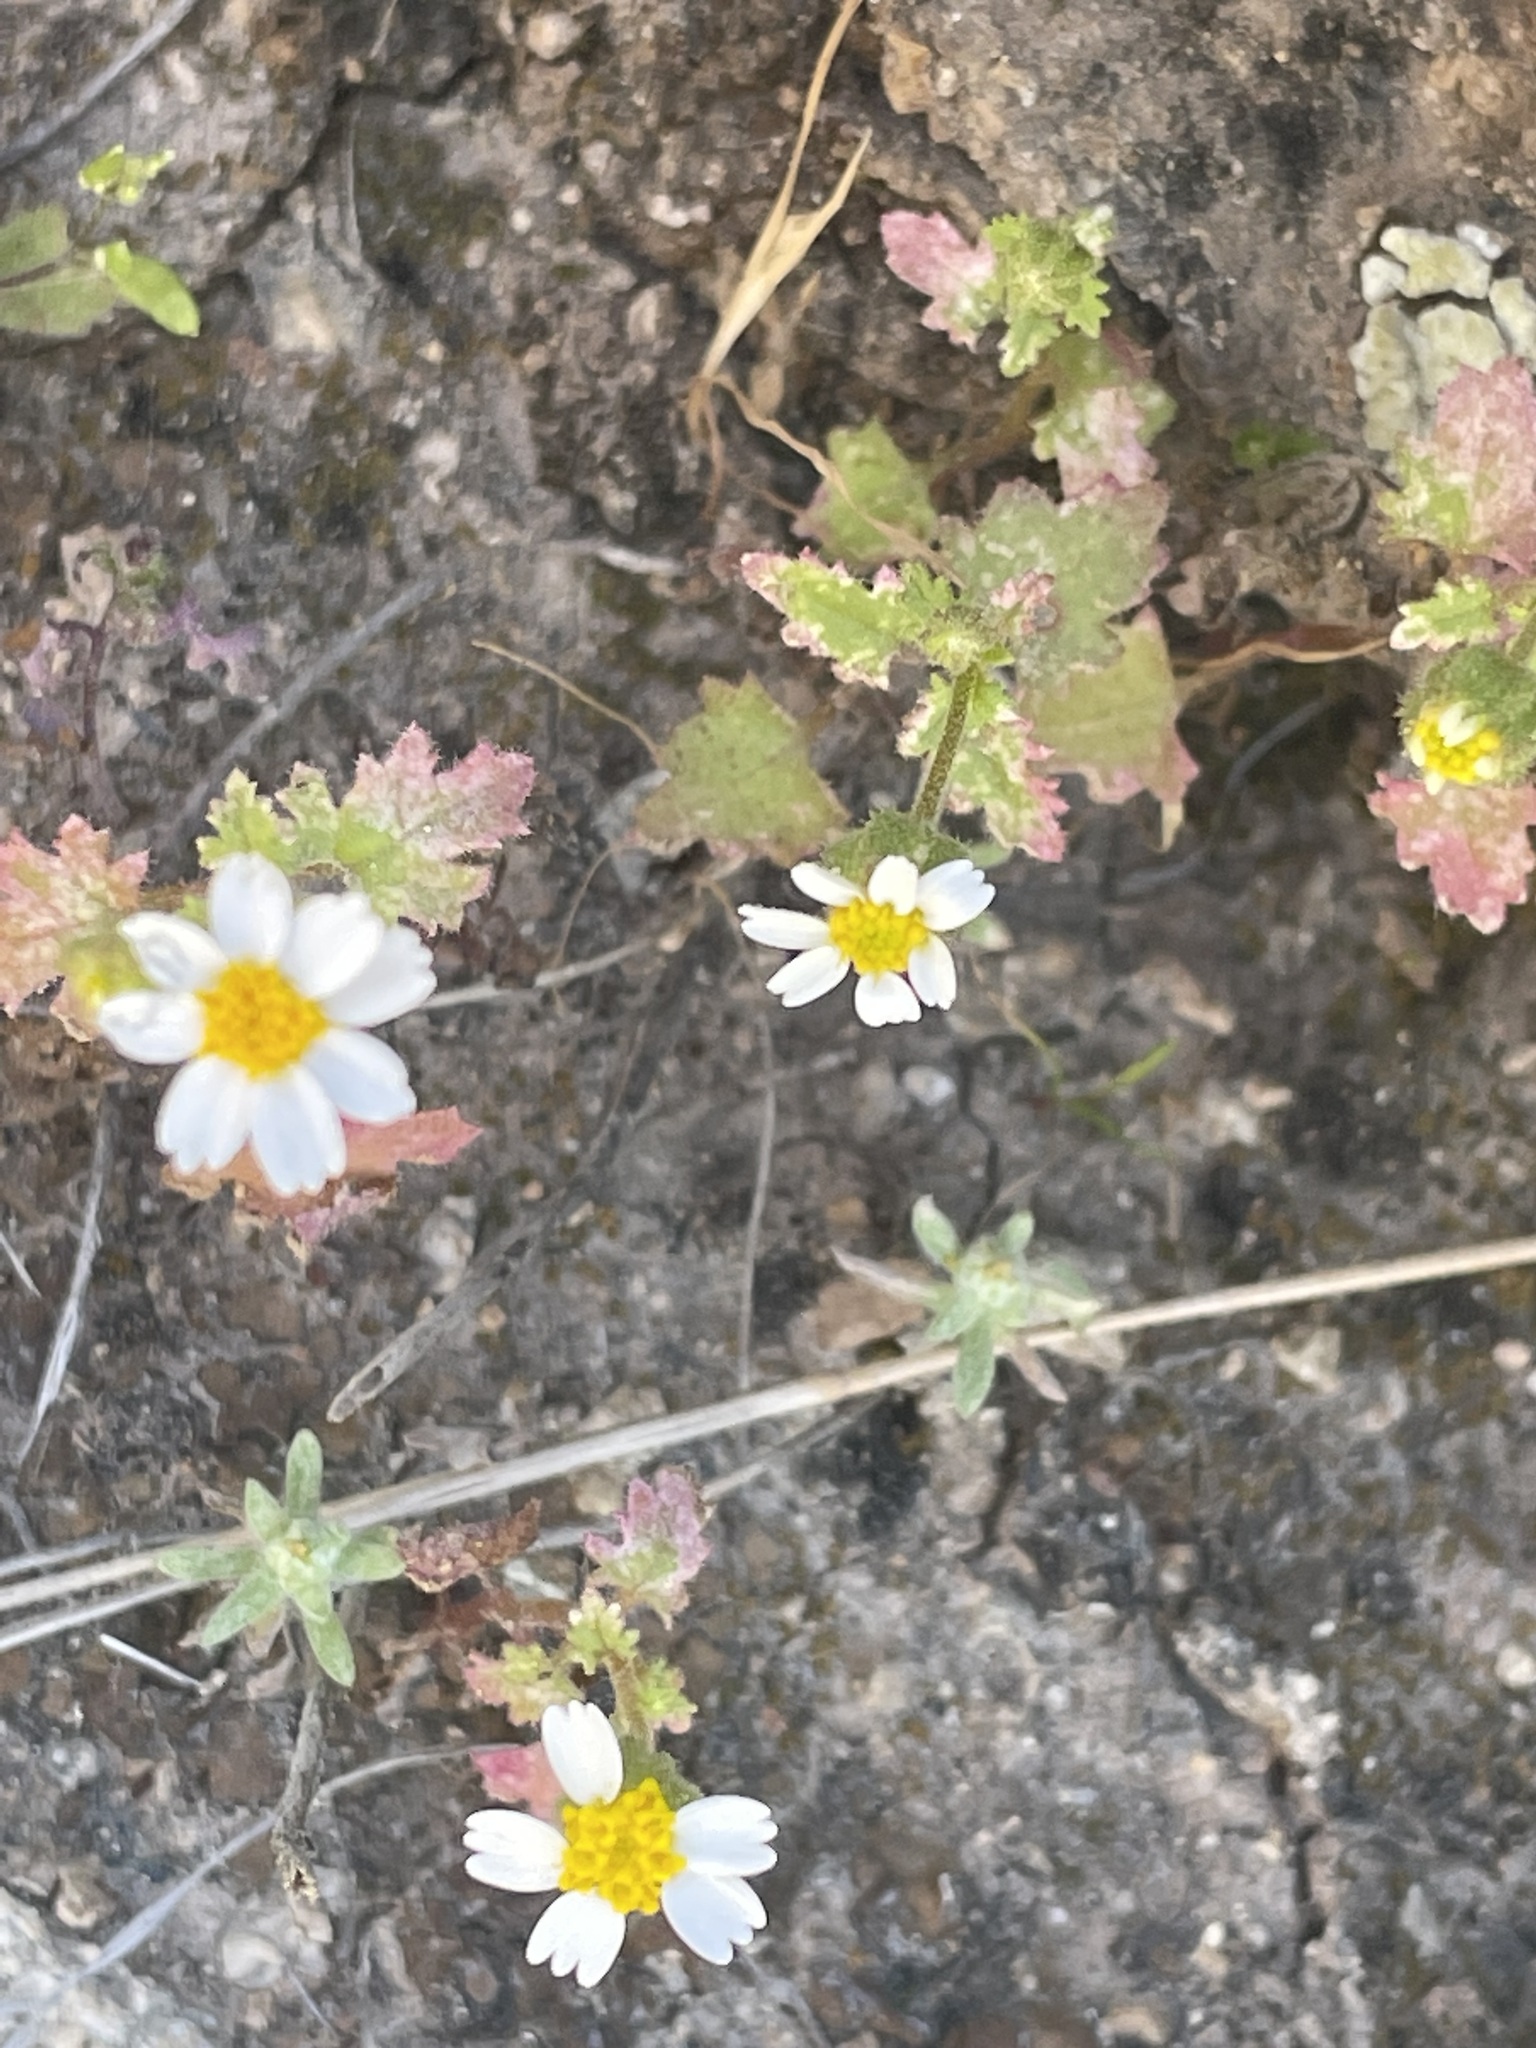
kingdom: Plantae
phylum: Tracheophyta
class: Magnoliopsida
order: Asterales
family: Asteraceae
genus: Laphamia
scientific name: Laphamia emoryi
